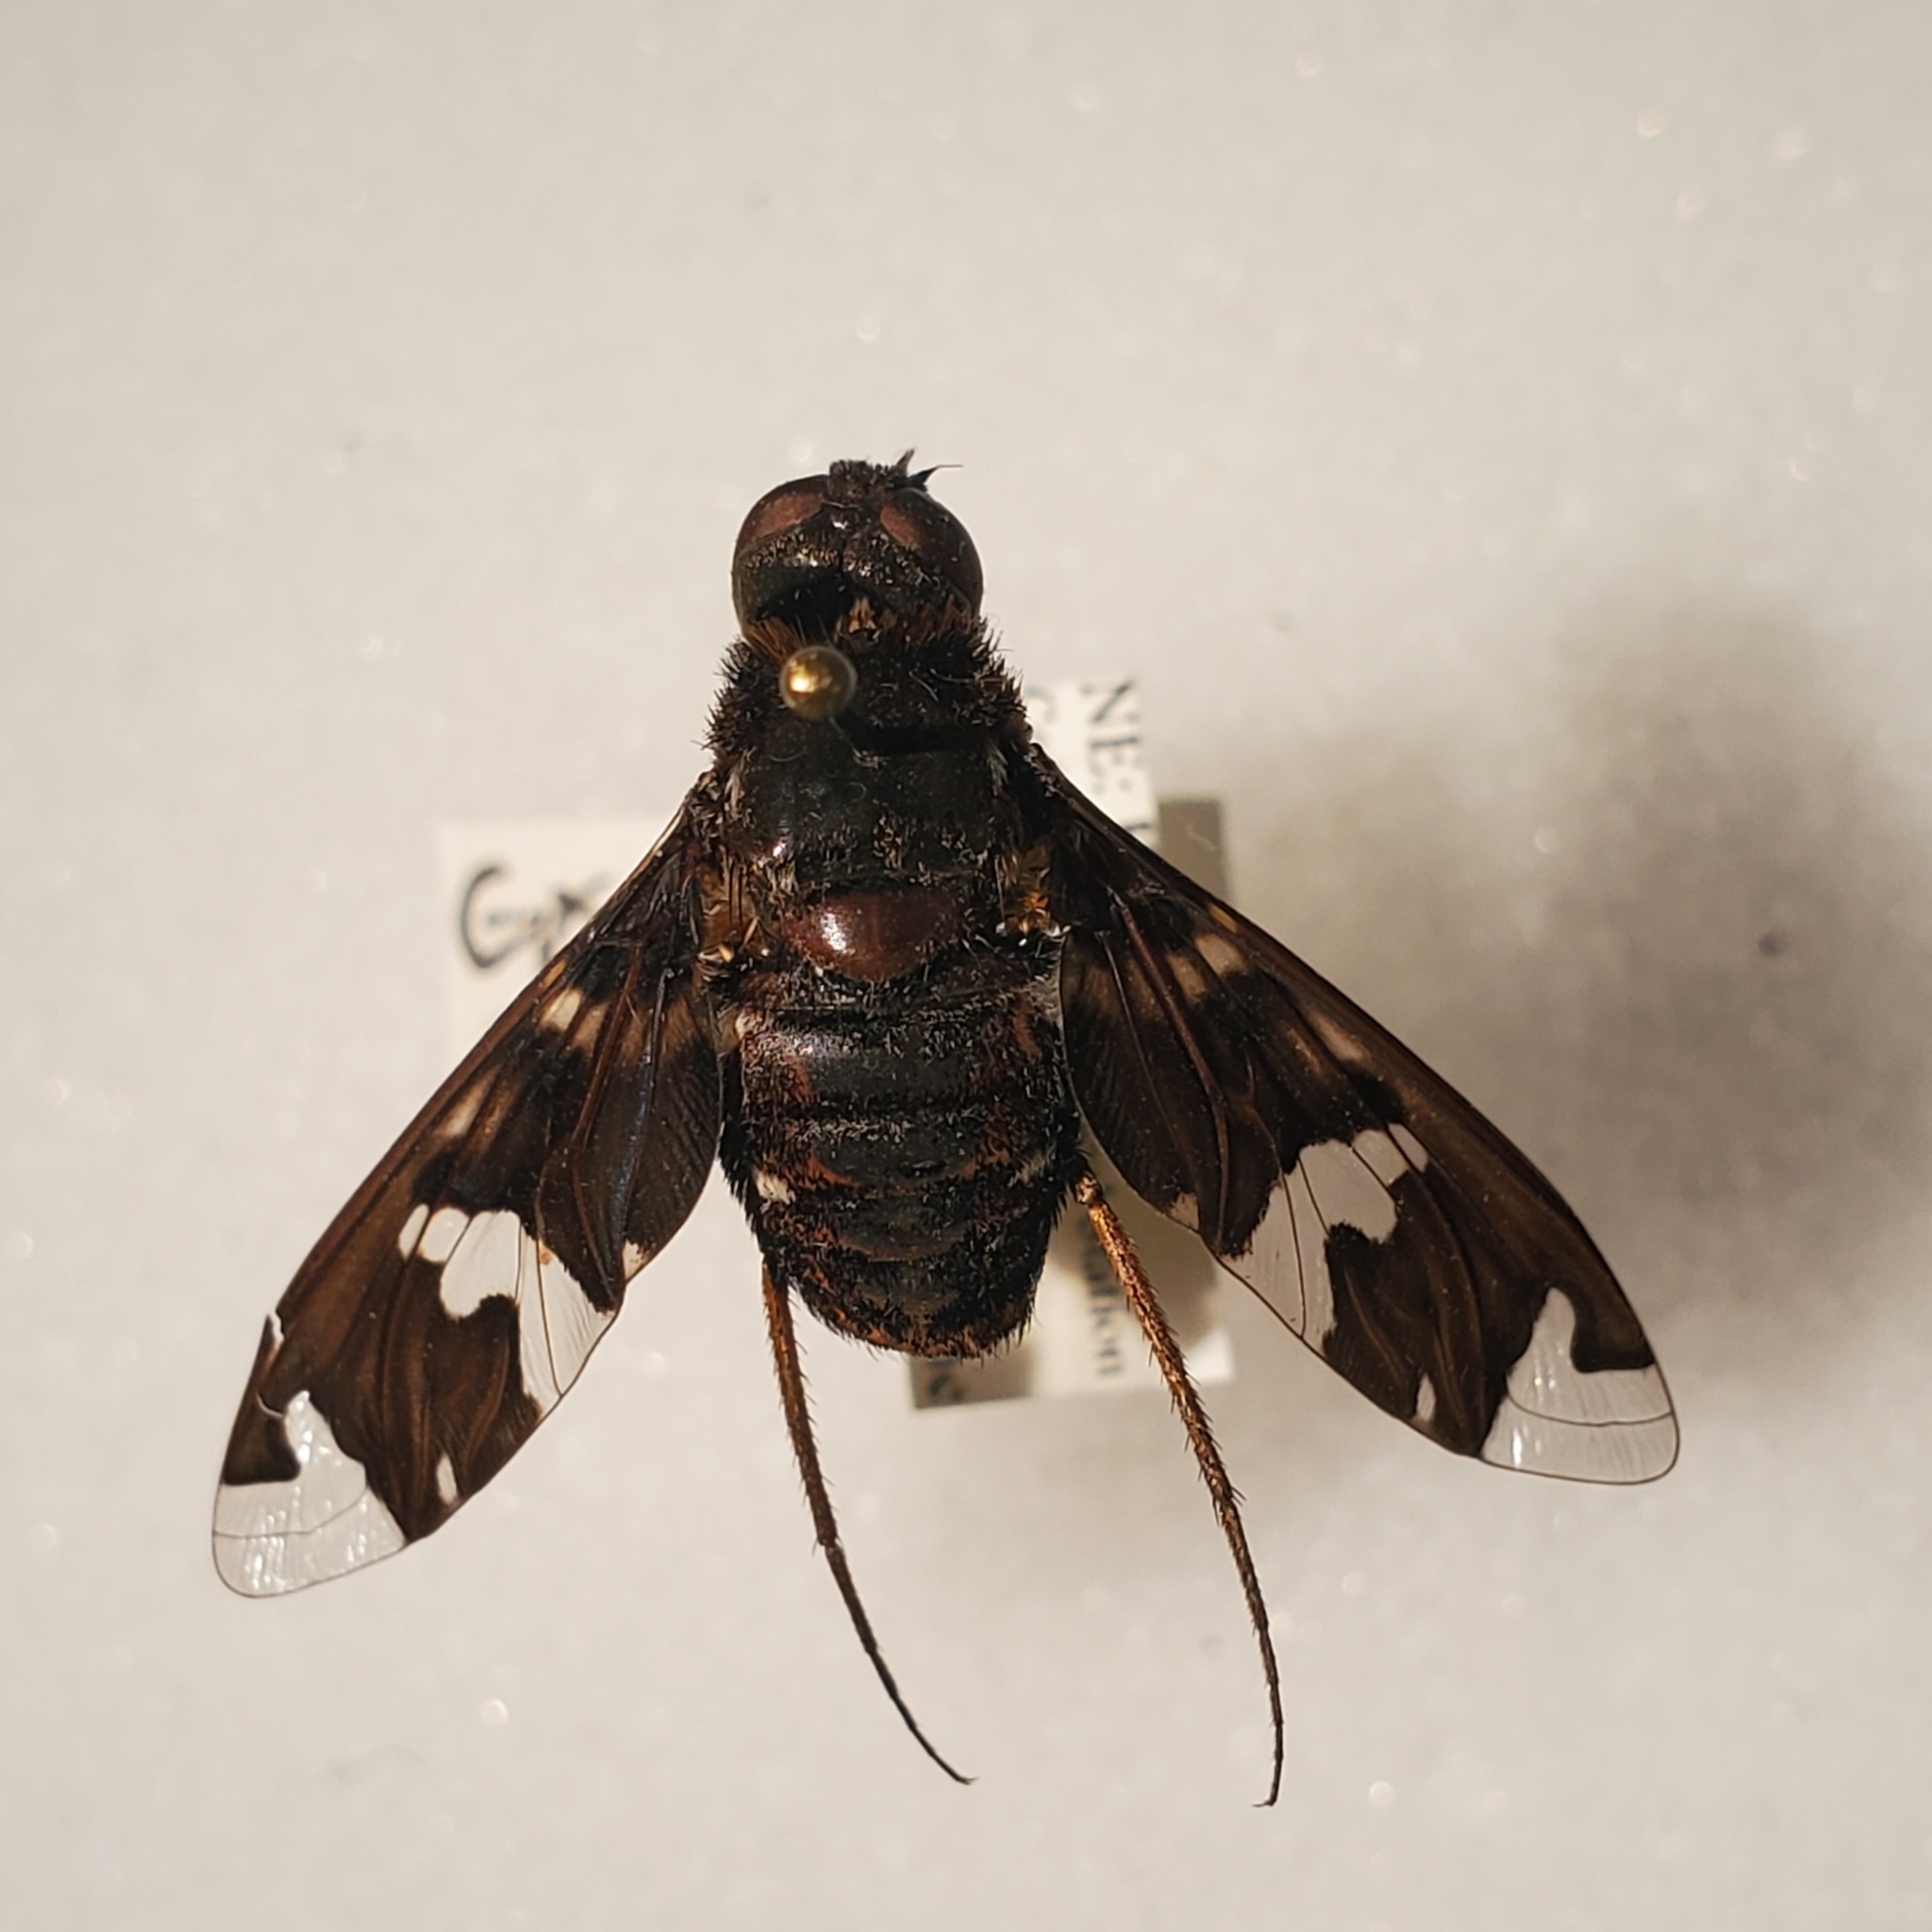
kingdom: Animalia
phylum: Arthropoda
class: Insecta
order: Diptera
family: Bombyliidae
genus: Exoprosopa
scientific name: Exoprosopa decora
